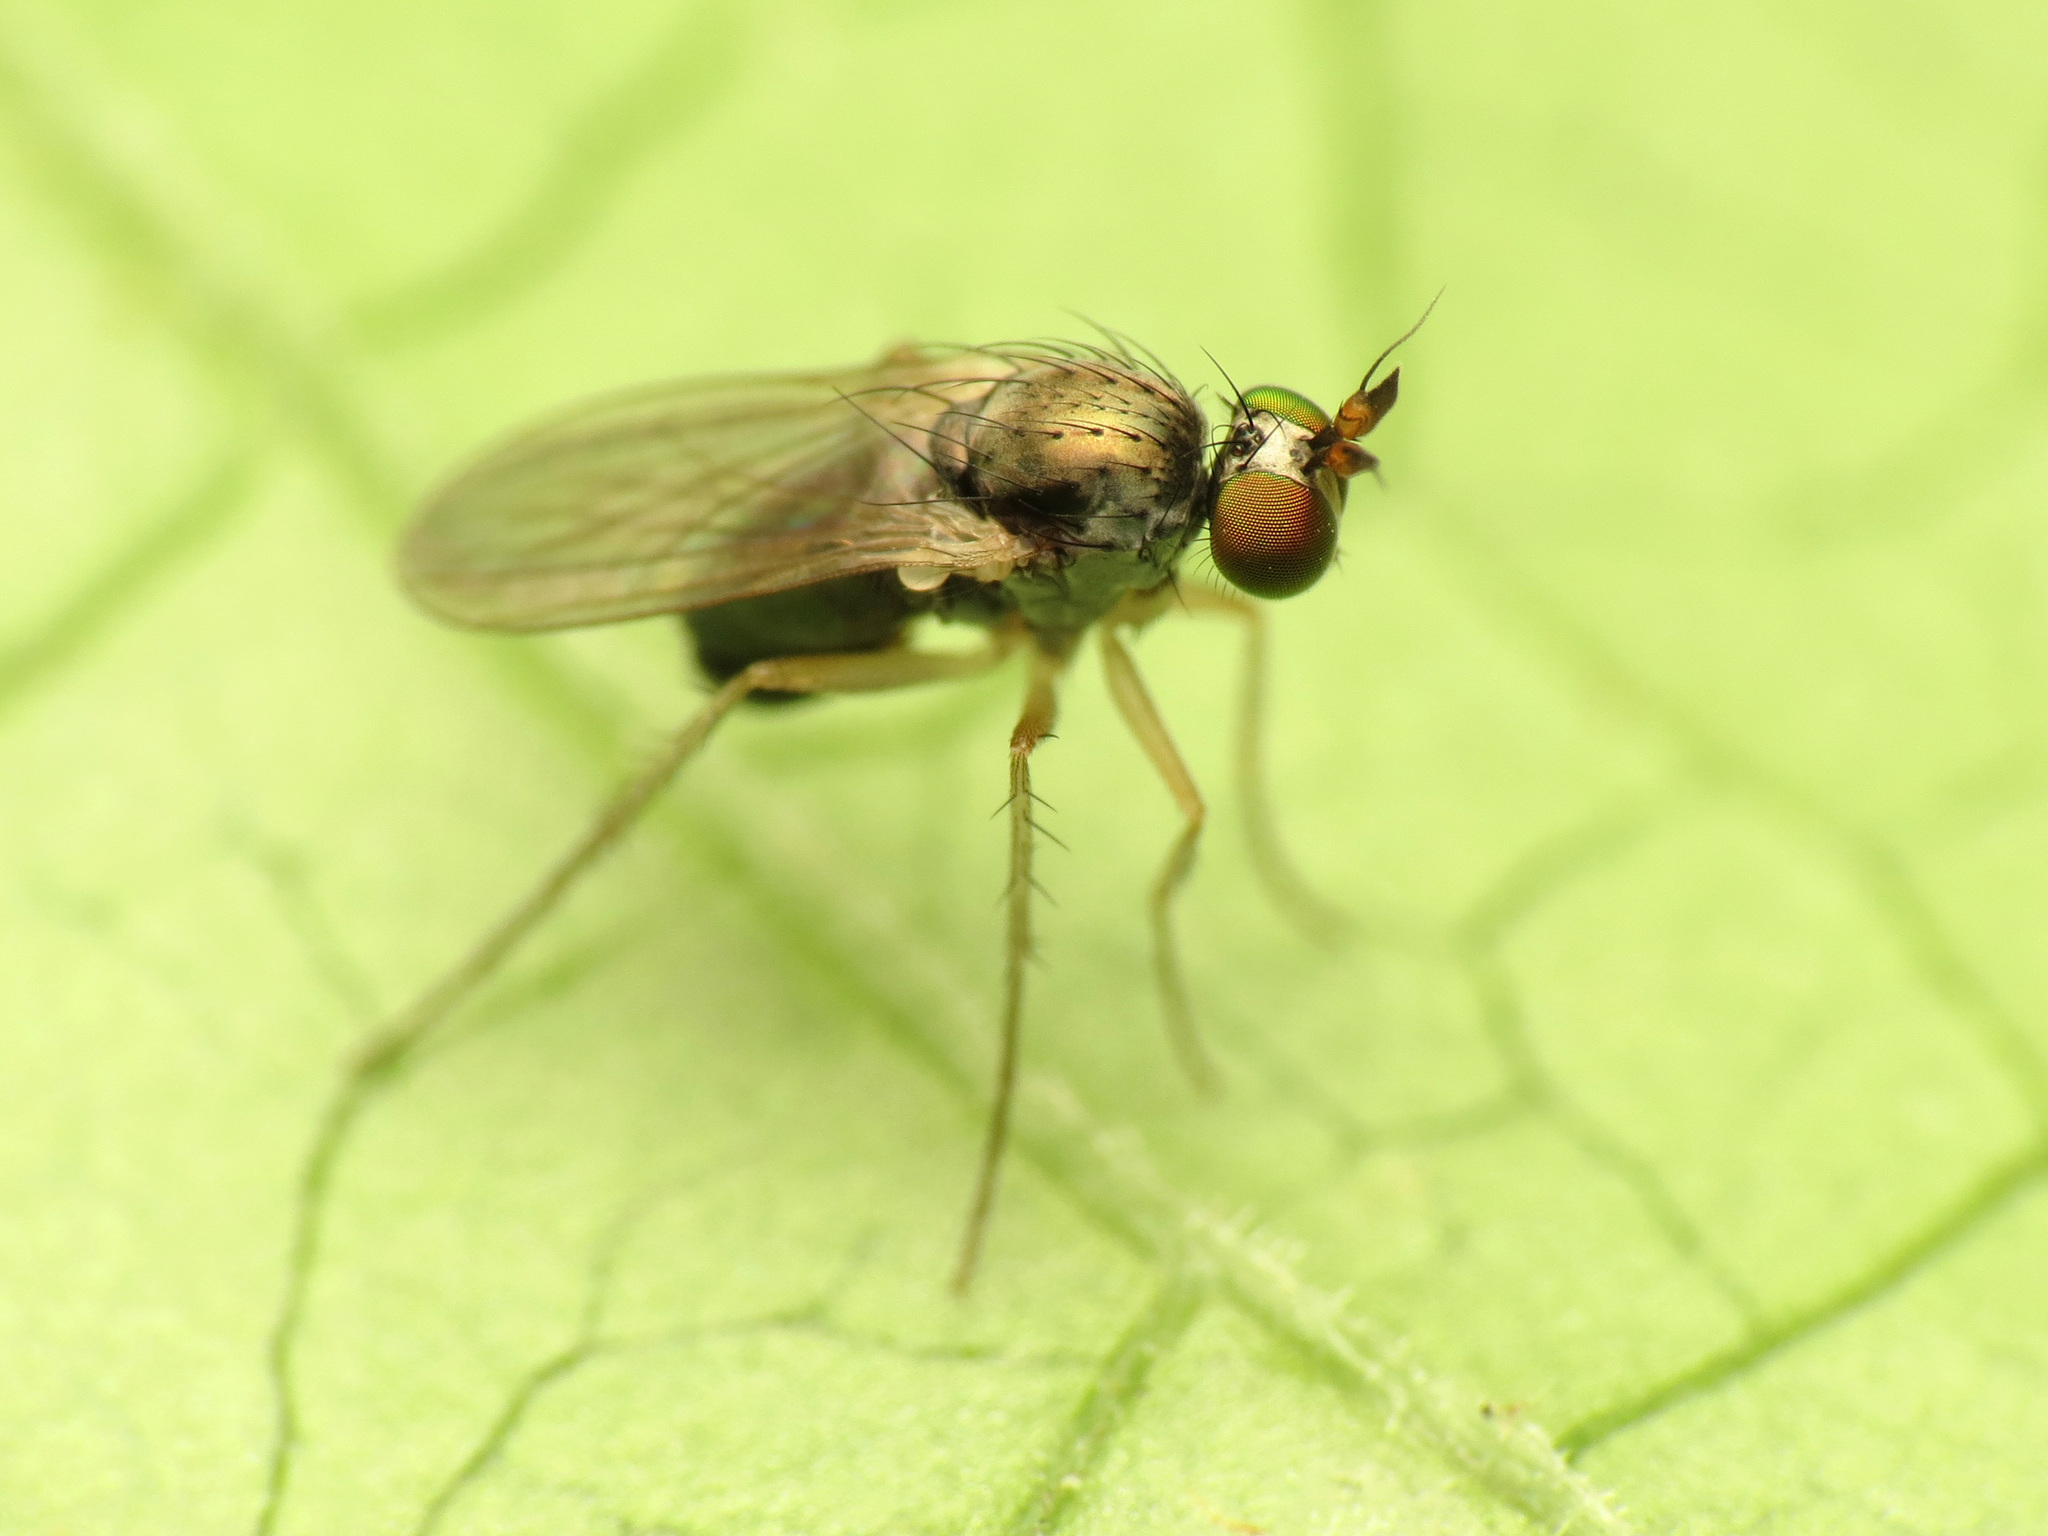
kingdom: Animalia
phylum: Arthropoda
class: Insecta
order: Diptera
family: Dolichopodidae
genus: Gymnopternus
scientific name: Gymnopternus opacus
